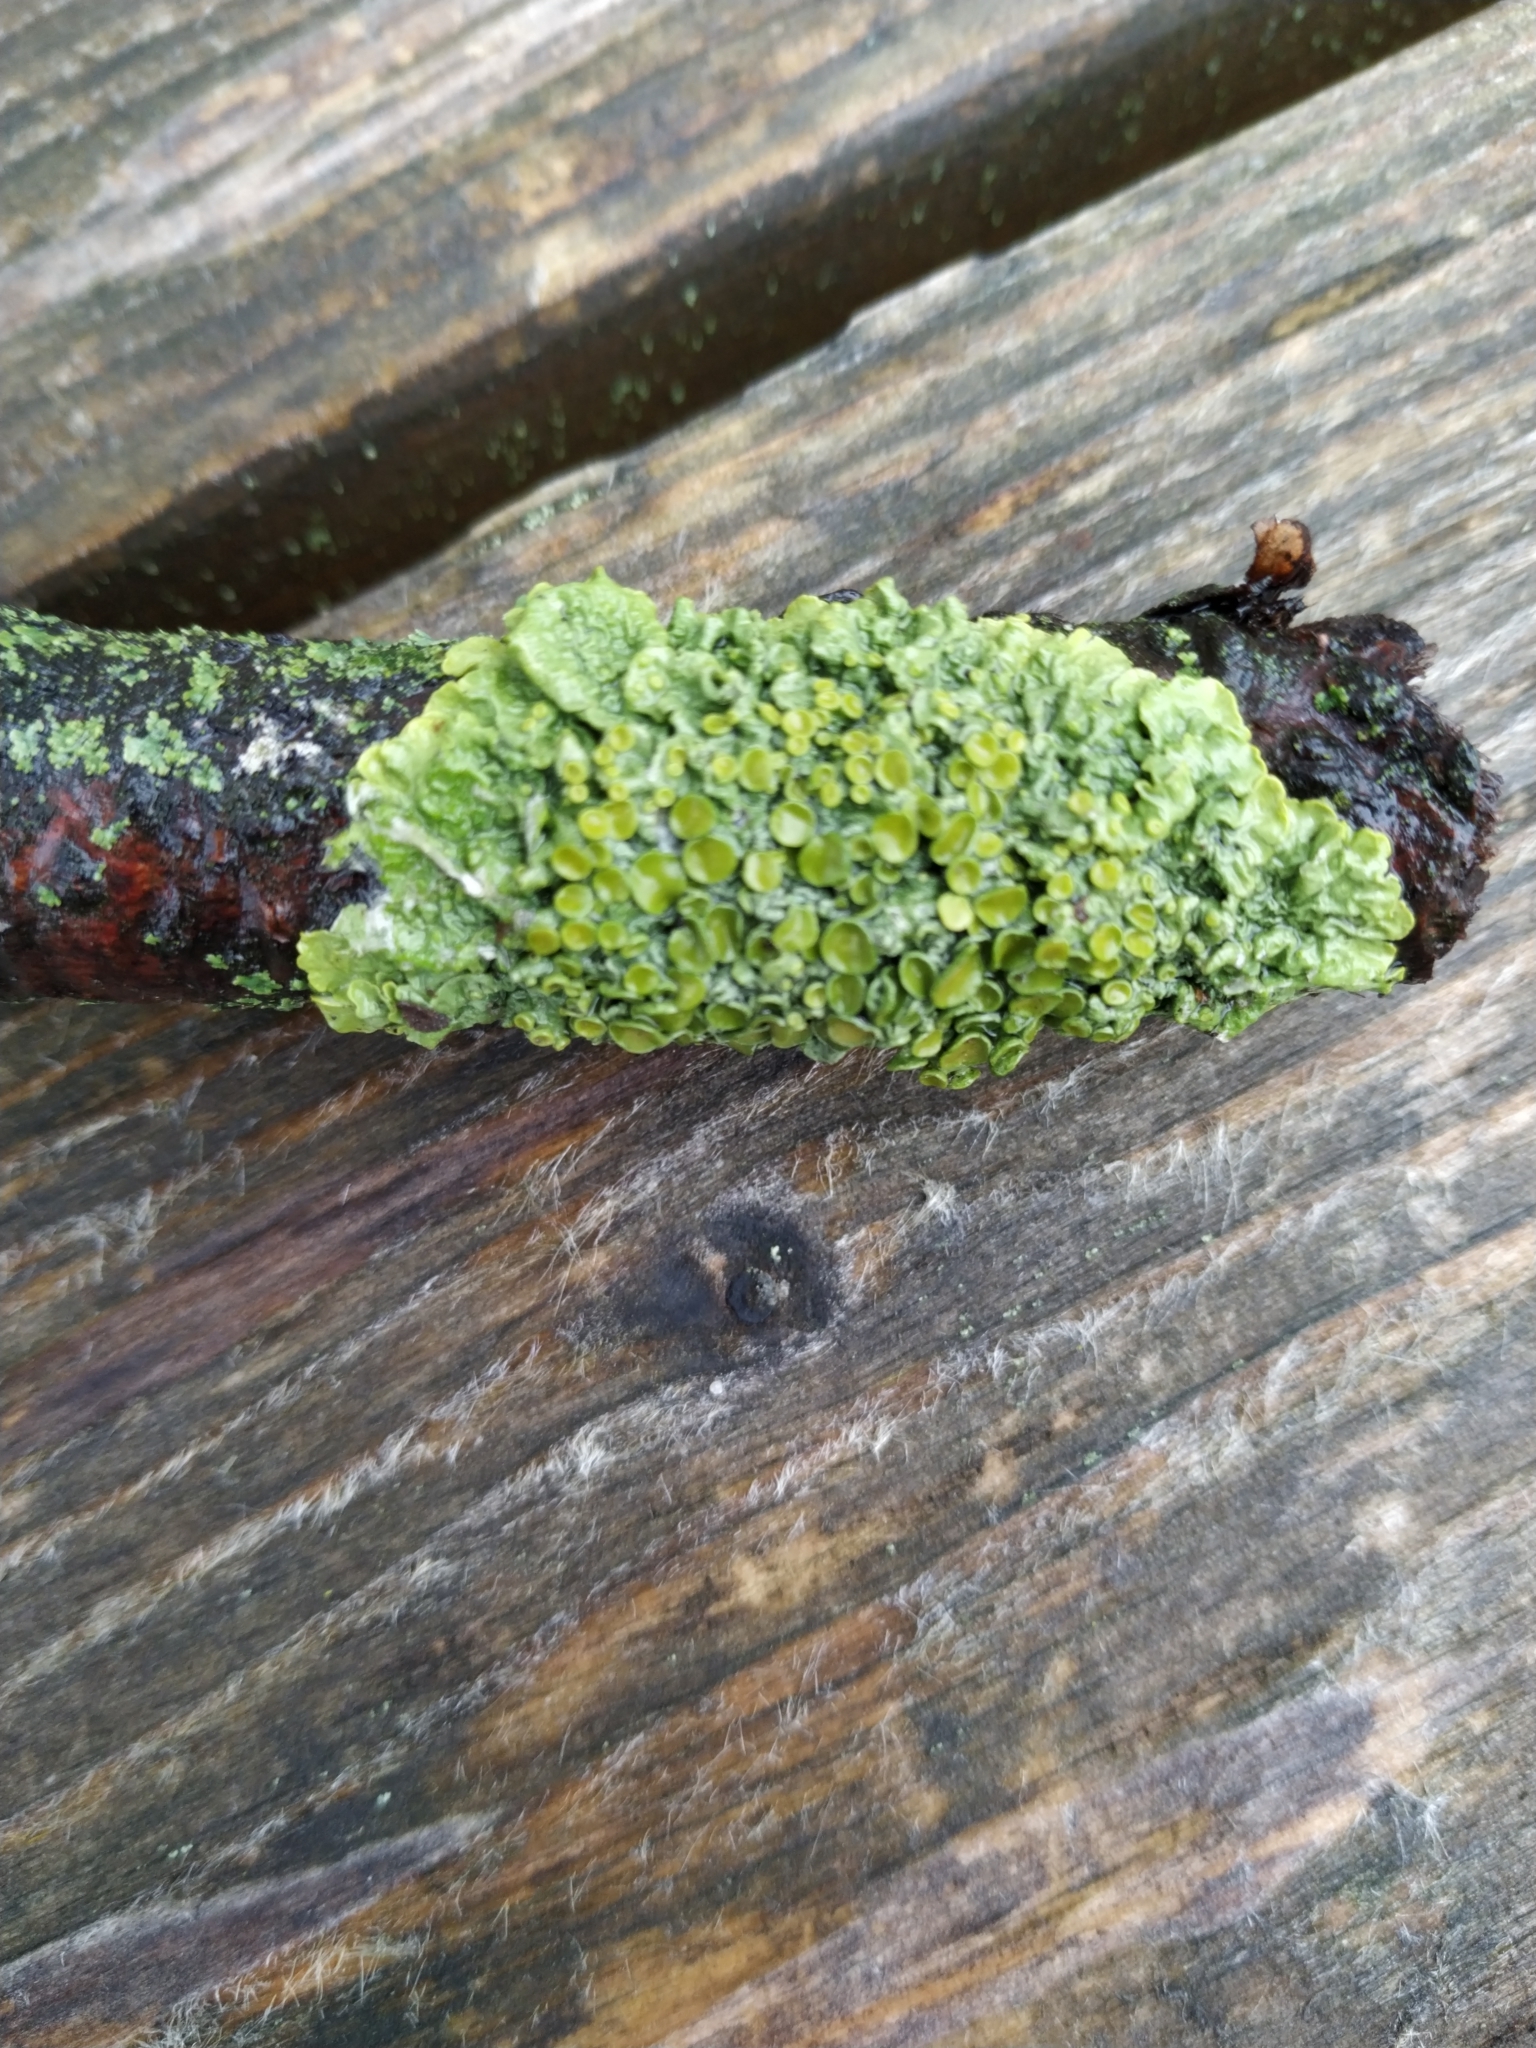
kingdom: Fungi
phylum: Ascomycota
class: Lecanoromycetes
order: Teloschistales
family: Teloschistaceae
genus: Xanthoria
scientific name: Xanthoria parietina
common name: Common orange lichen
